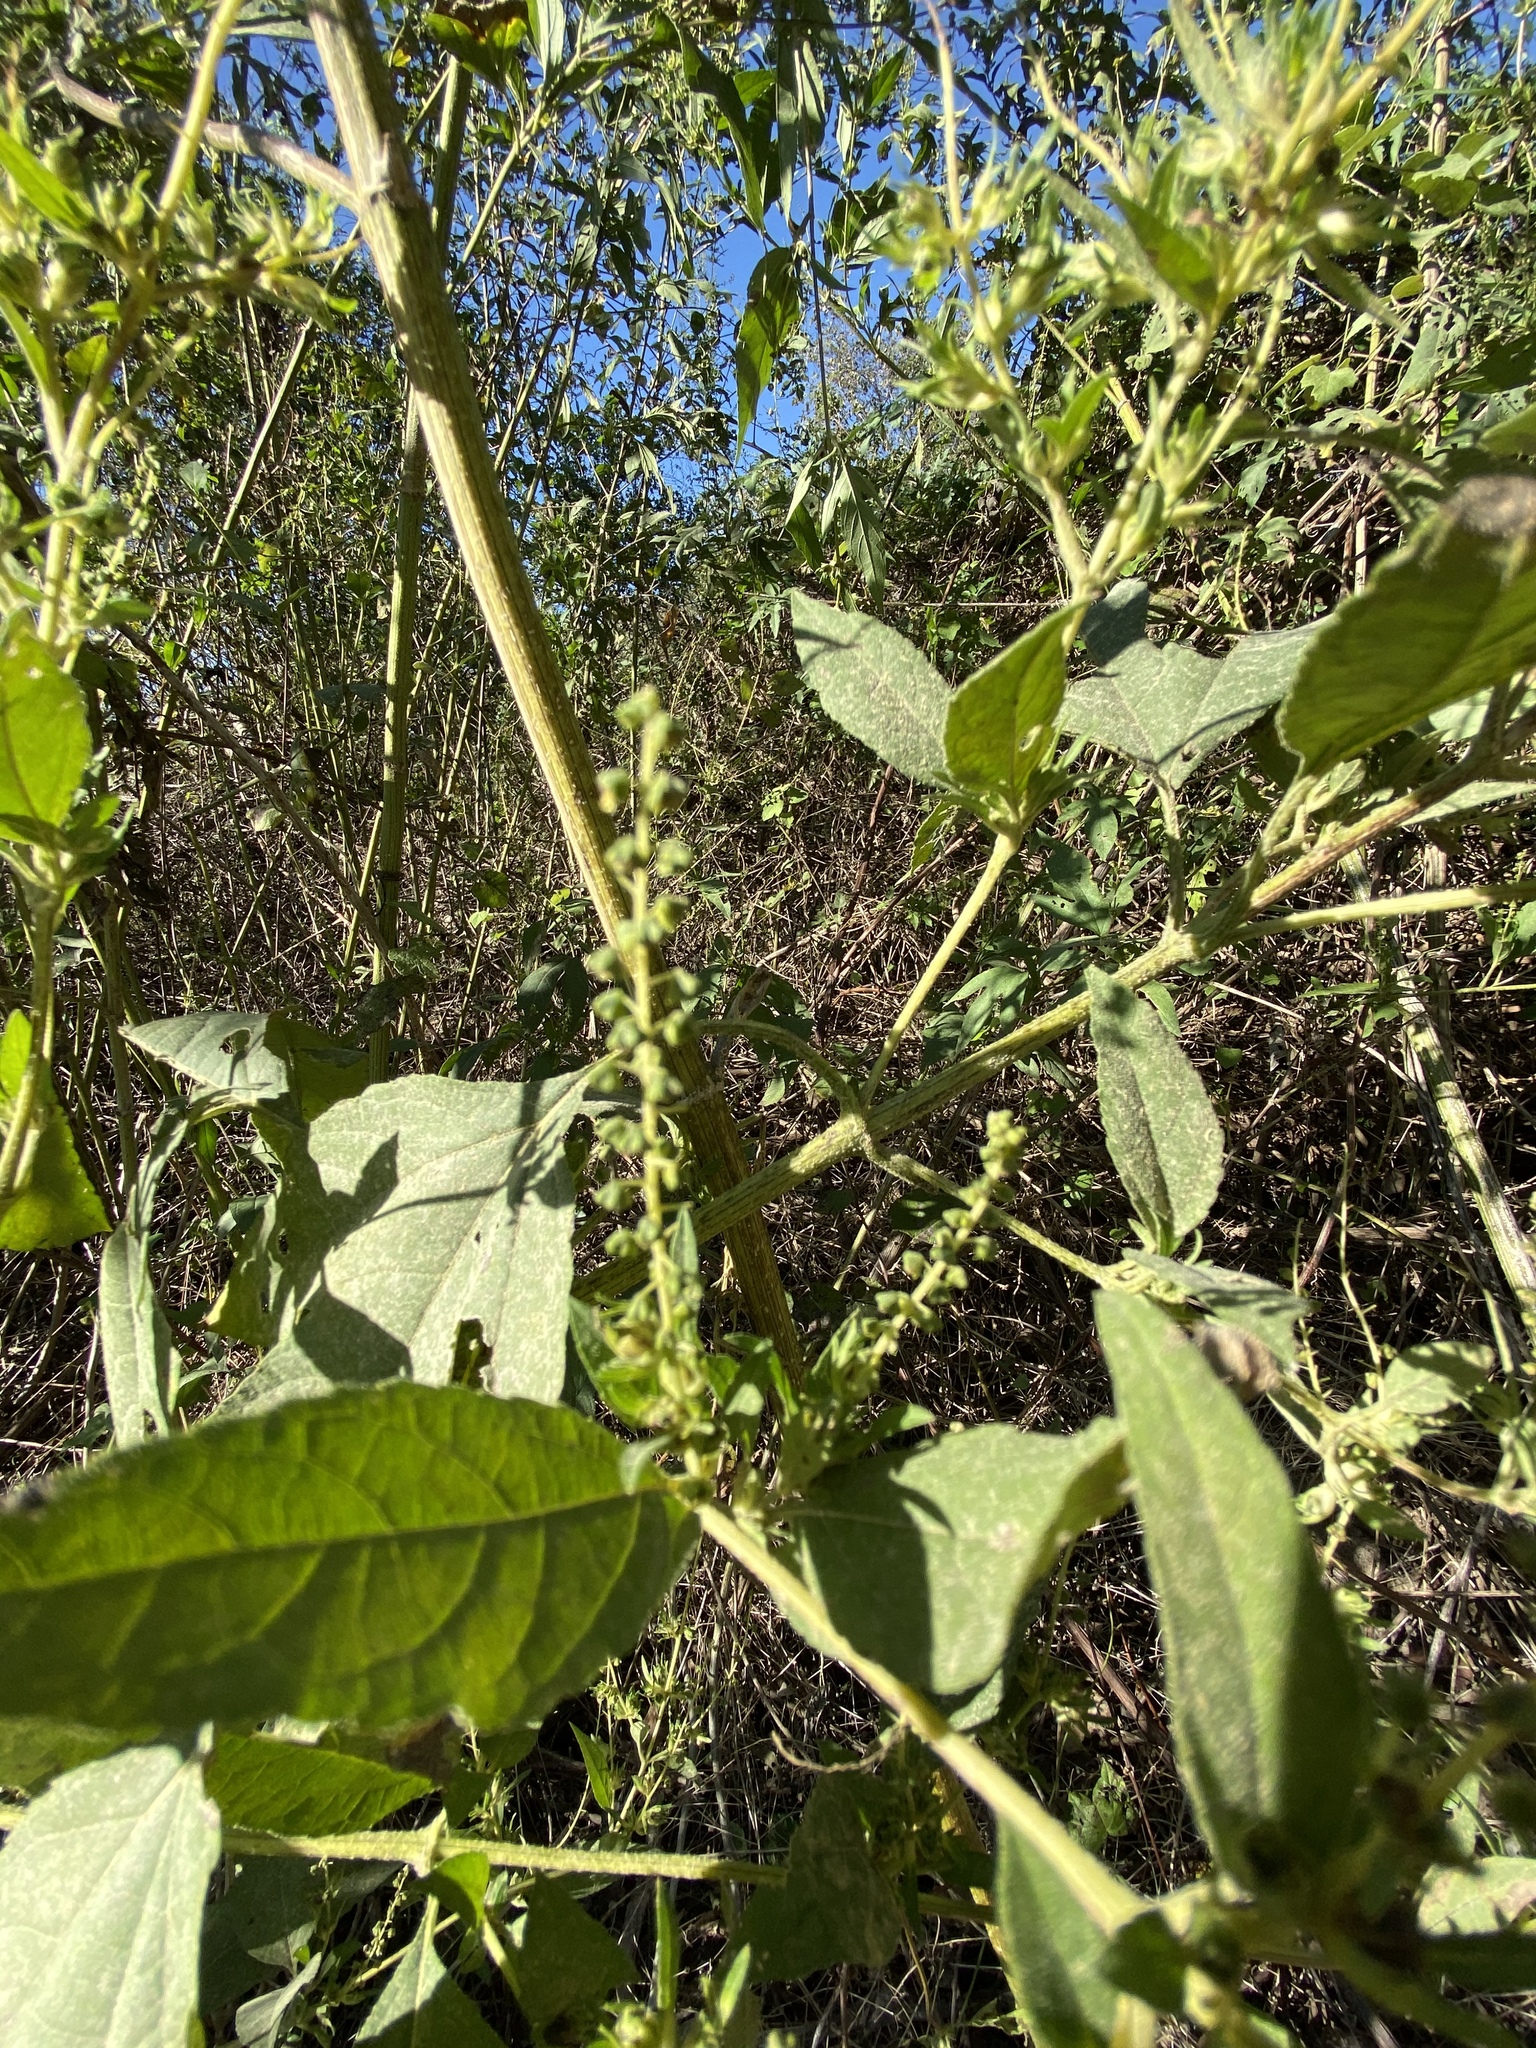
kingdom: Plantae
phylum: Tracheophyta
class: Magnoliopsida
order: Asterales
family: Asteraceae
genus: Ambrosia
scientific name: Ambrosia trifida
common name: Giant ragweed
